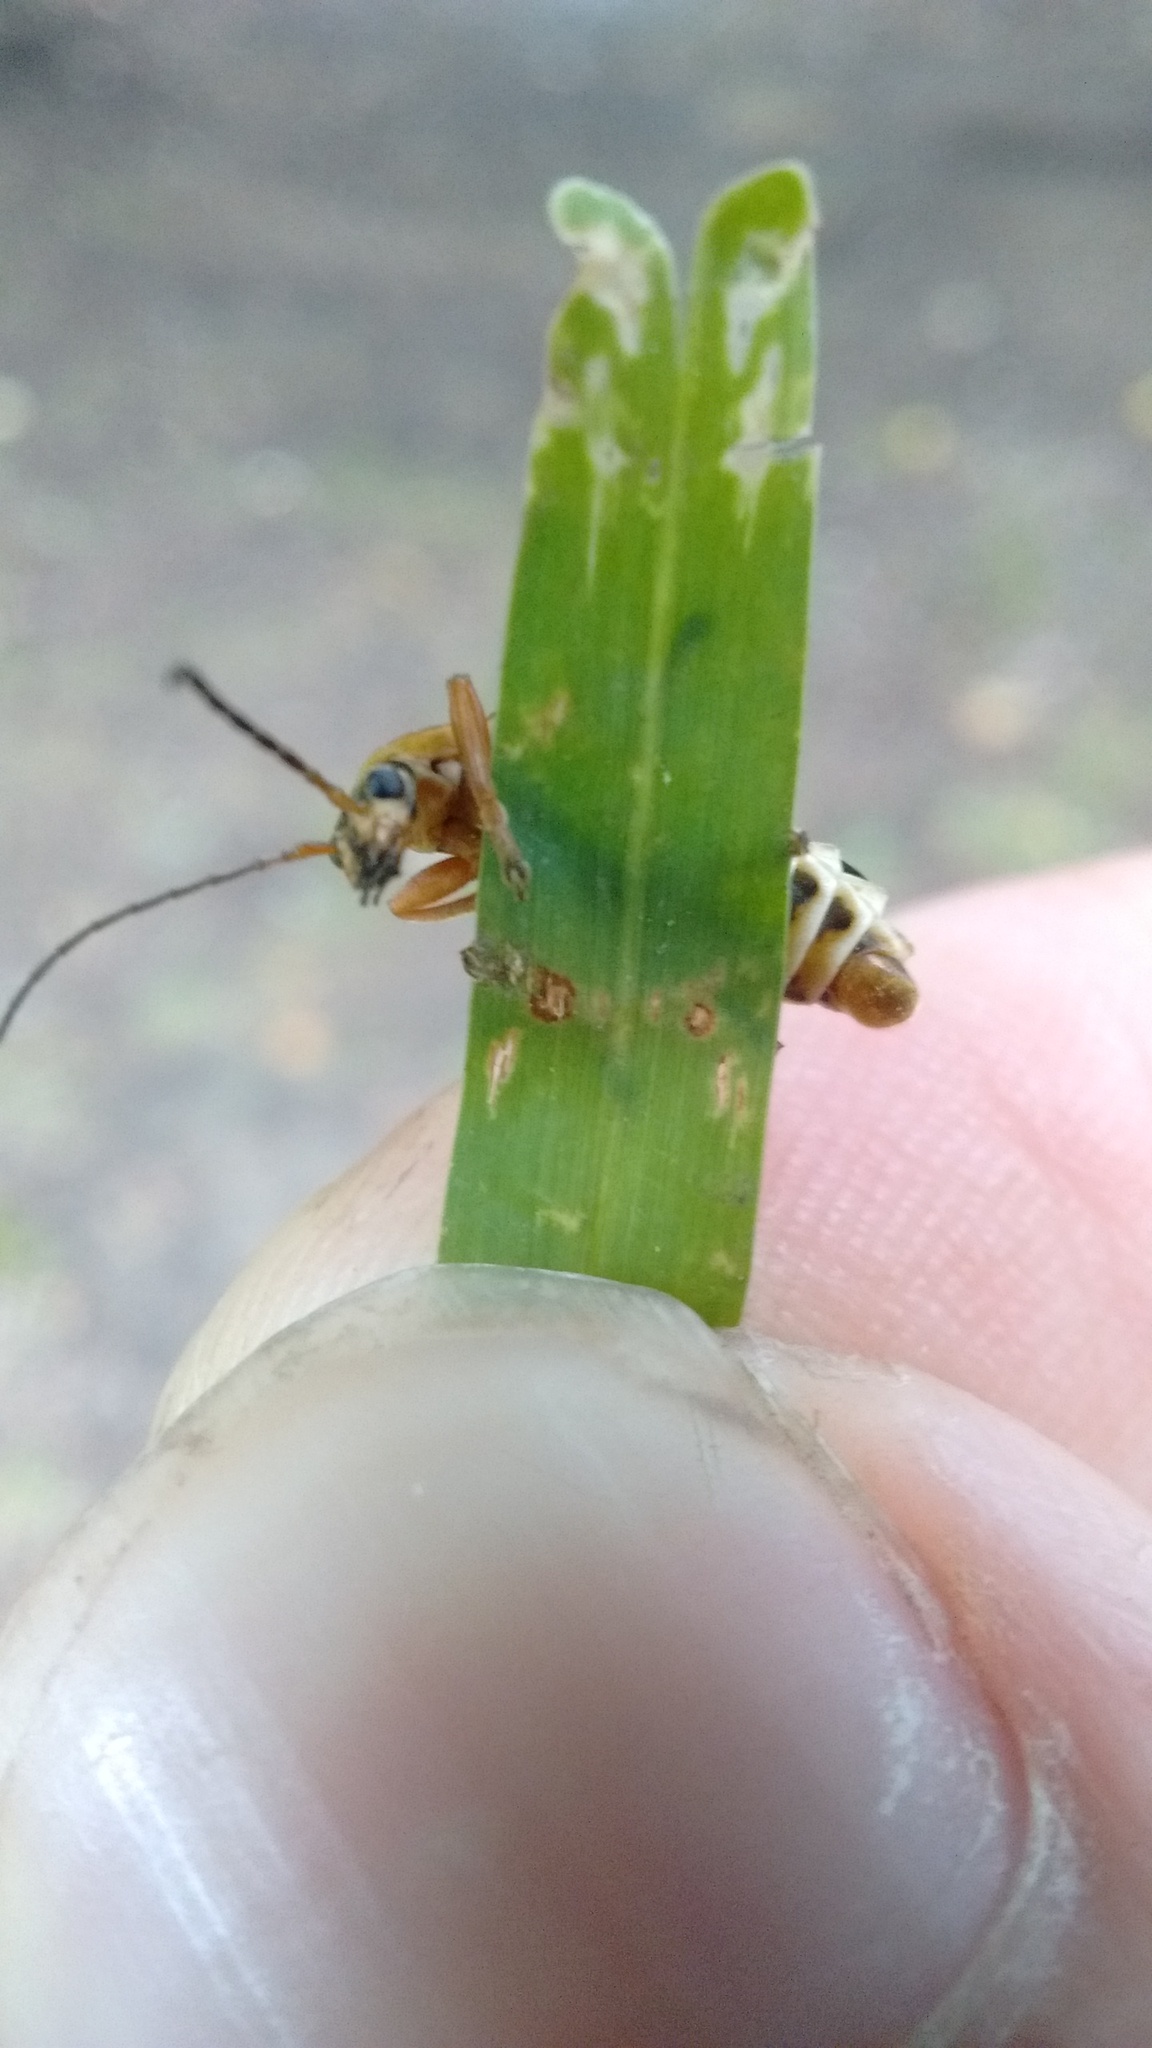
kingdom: Animalia
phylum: Arthropoda
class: Insecta
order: Coleoptera
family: Cantharidae
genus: Chauliognathus
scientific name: Chauliognathus
